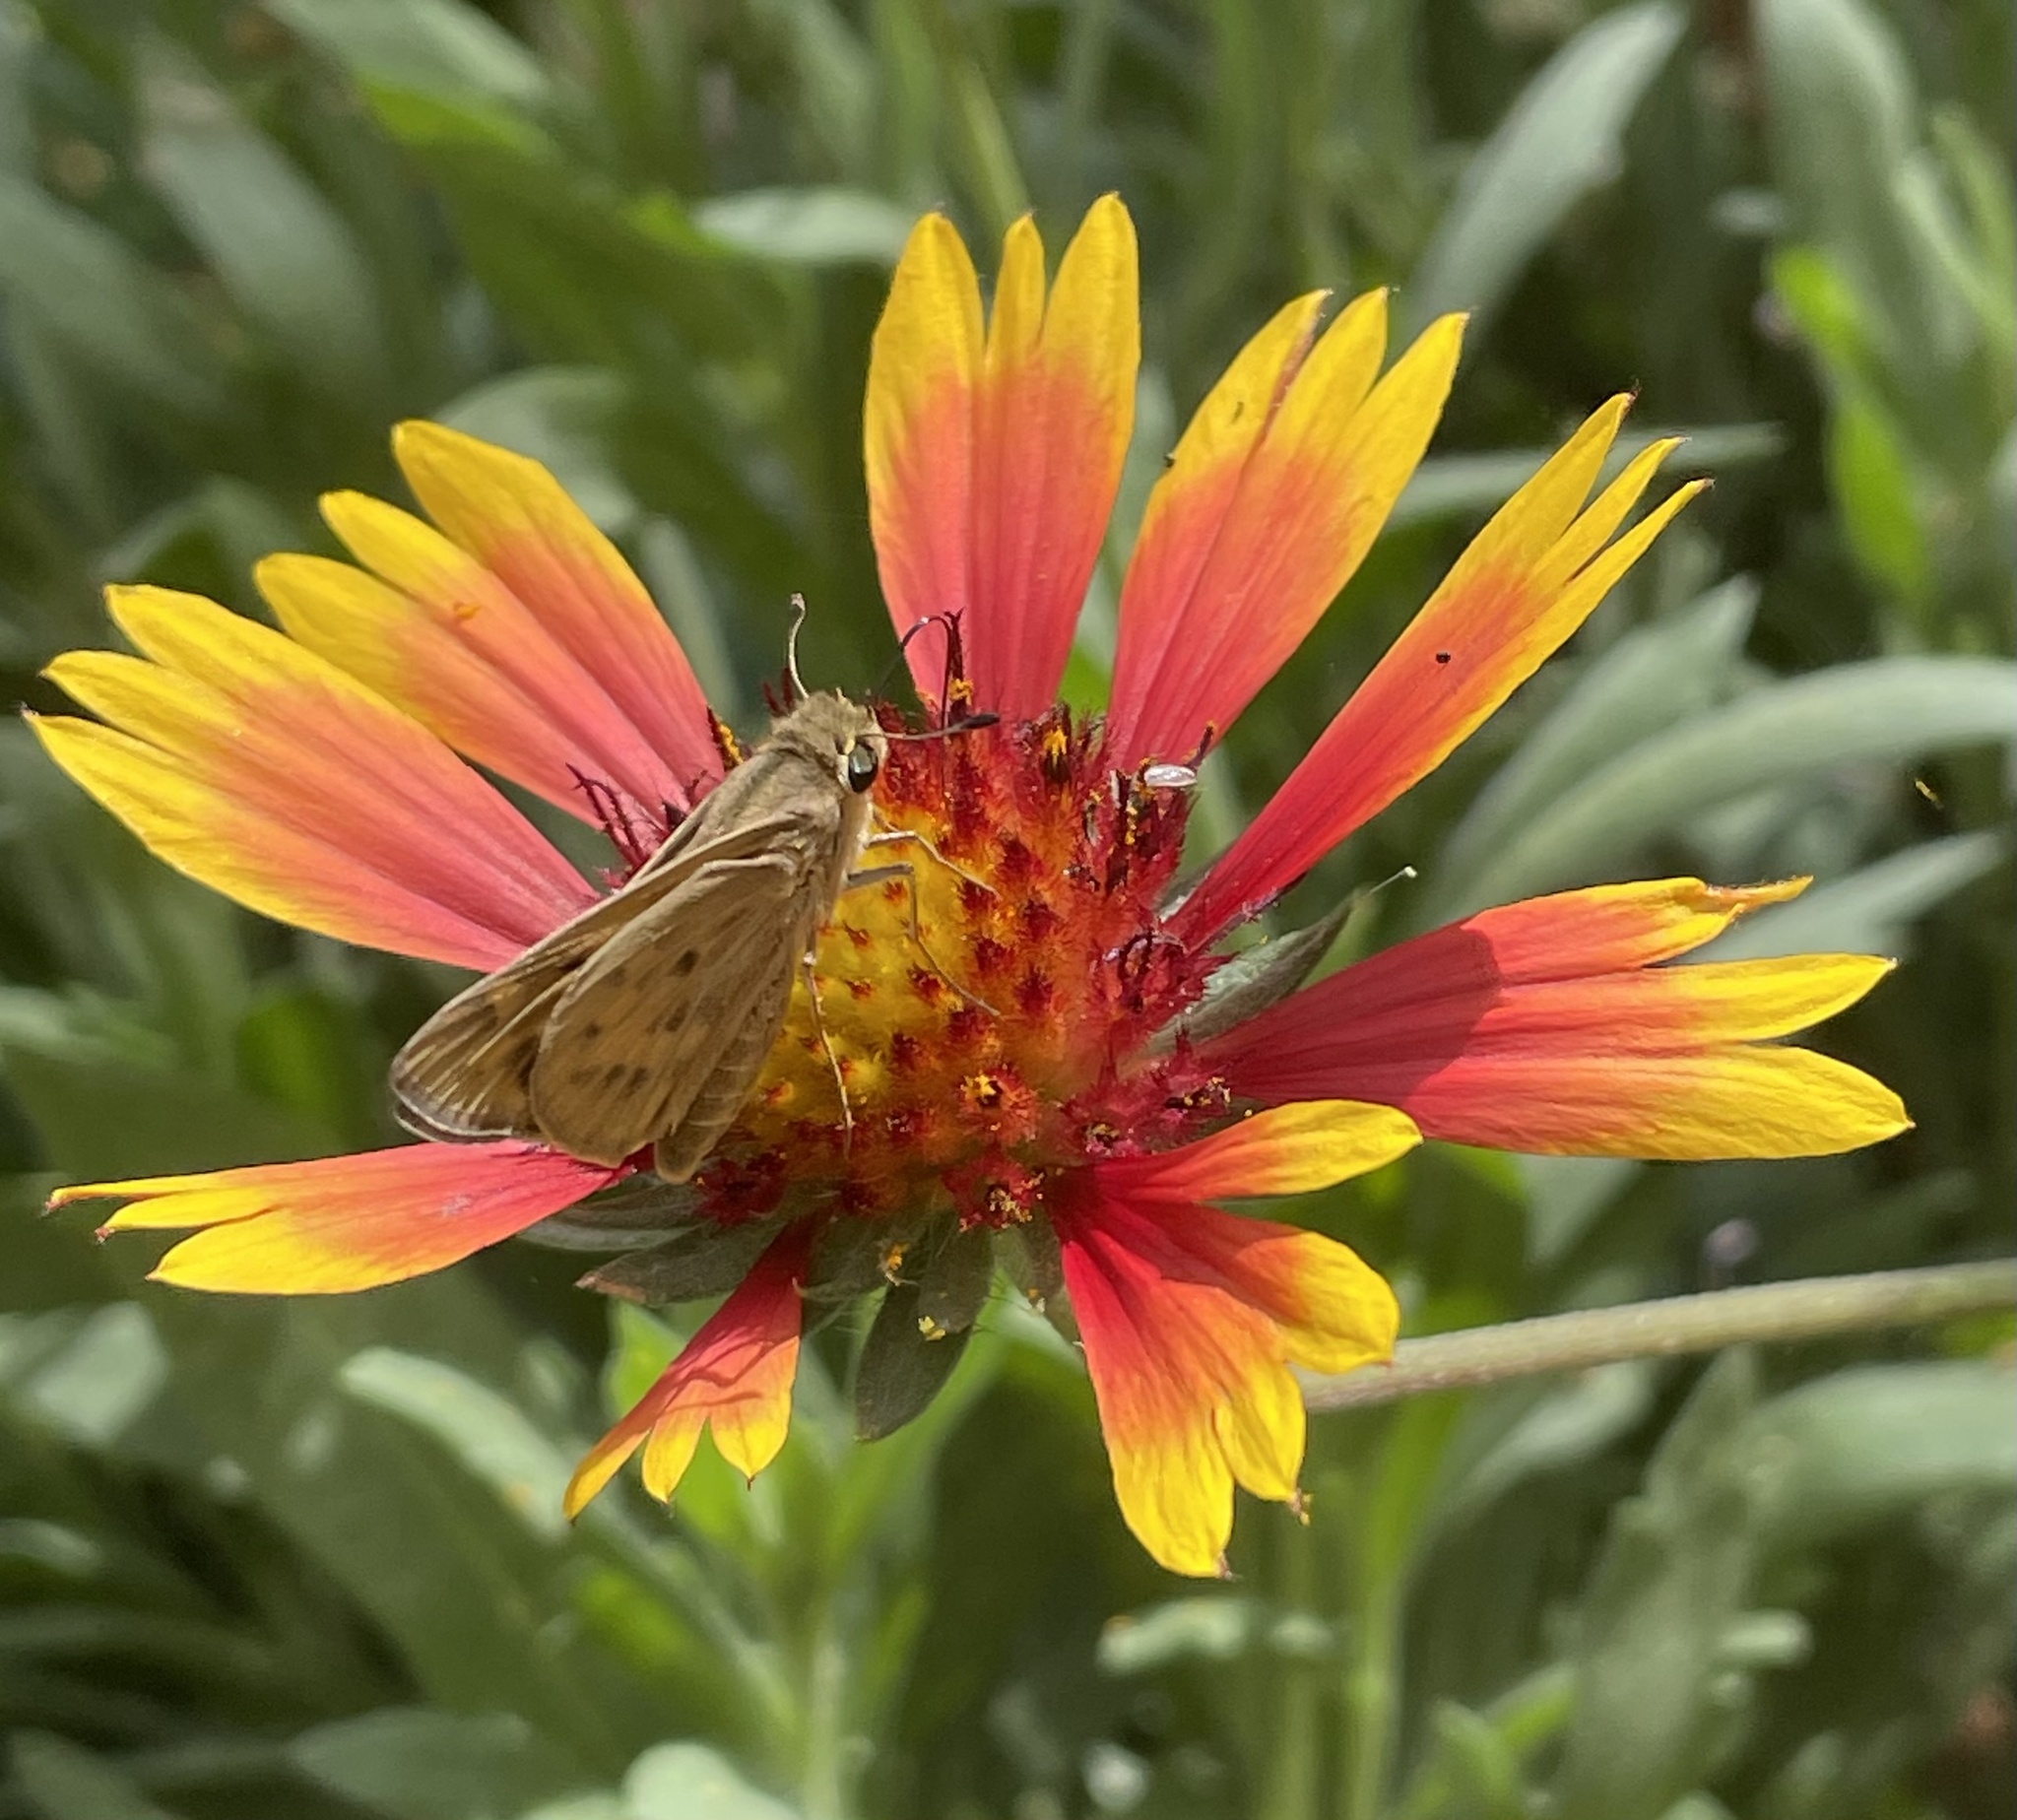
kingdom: Animalia
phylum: Arthropoda
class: Insecta
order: Lepidoptera
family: Hesperiidae
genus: Hylephila
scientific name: Hylephila phyleus
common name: Fiery skipper
